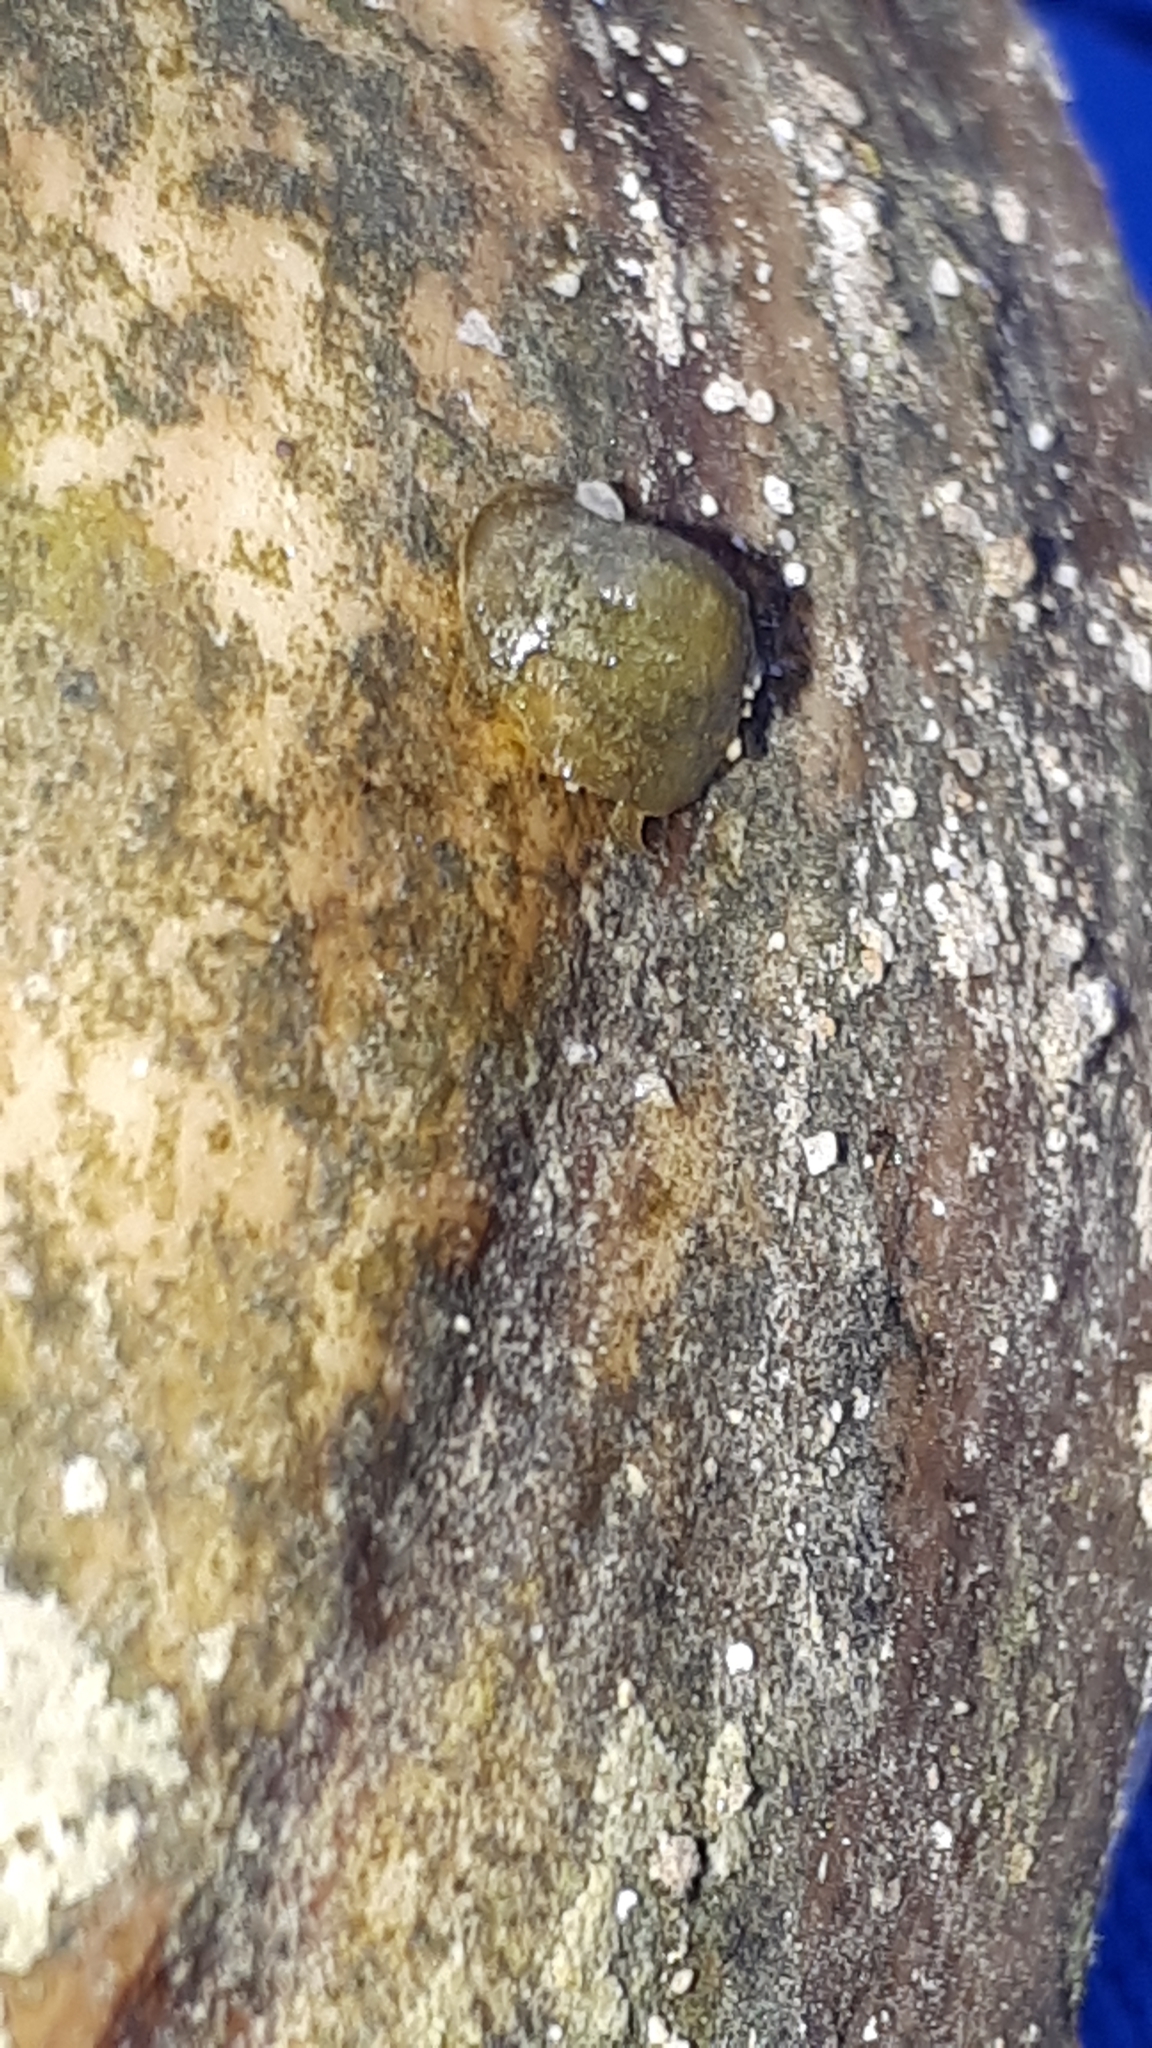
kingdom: Animalia
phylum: Mollusca
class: Gastropoda
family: Planorbidae
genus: Ancylus
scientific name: Ancylus fluviatilis
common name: River limpet
